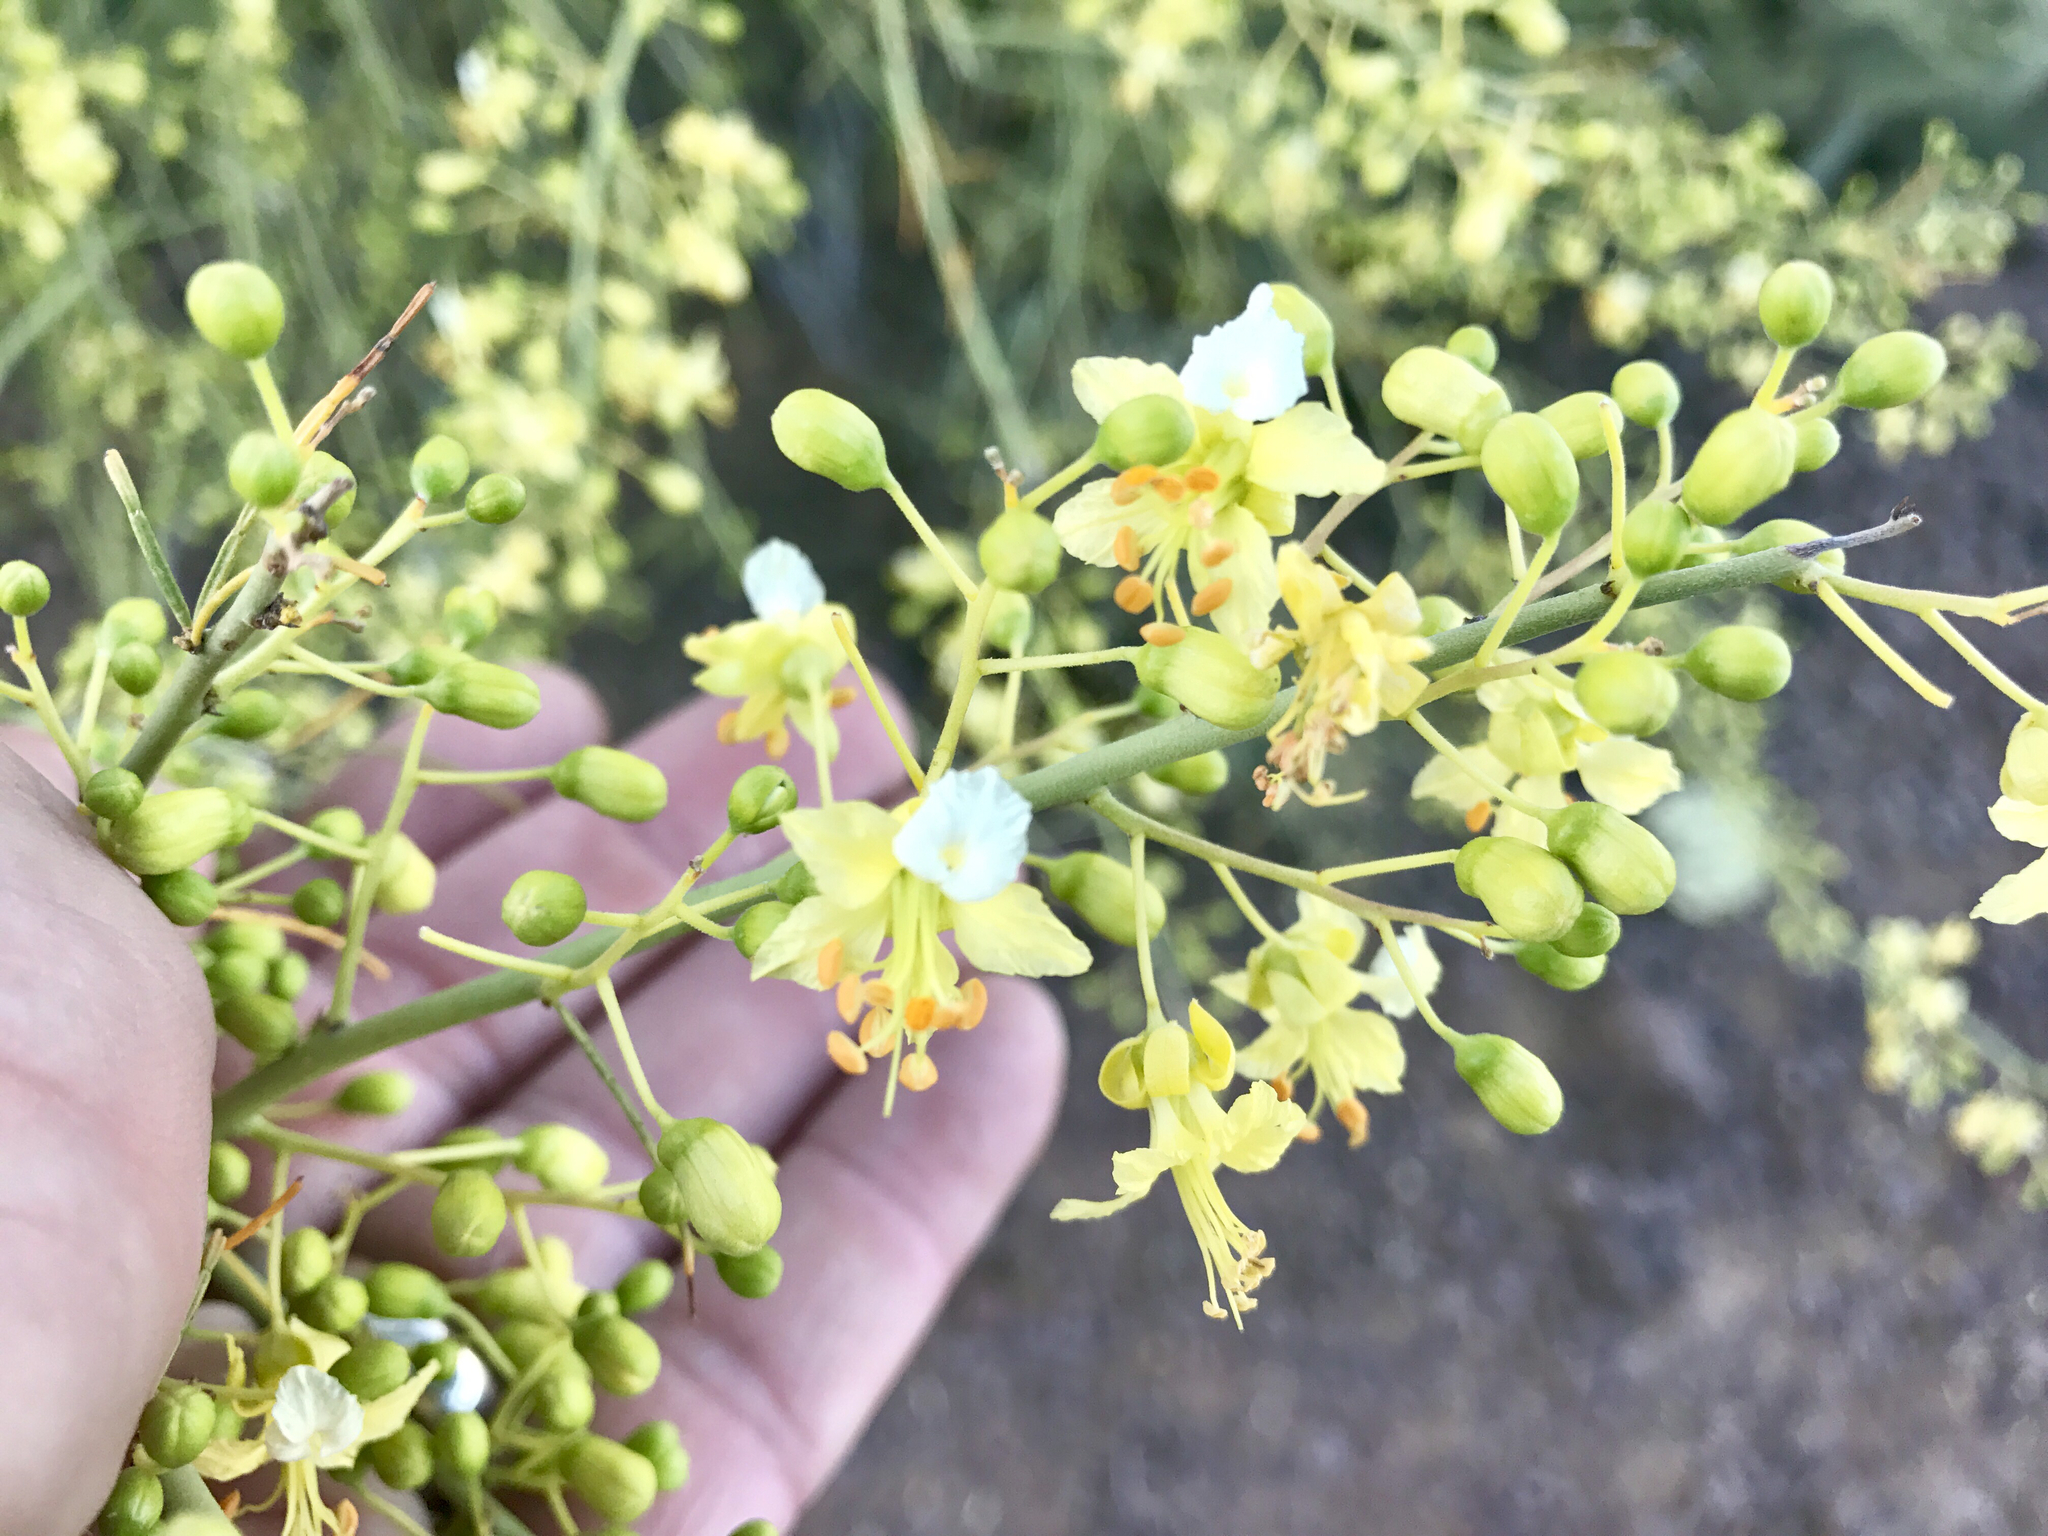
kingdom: Plantae
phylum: Tracheophyta
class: Magnoliopsida
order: Fabales
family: Fabaceae
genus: Parkinsonia
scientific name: Parkinsonia microphylla
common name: Yellow paloverde
